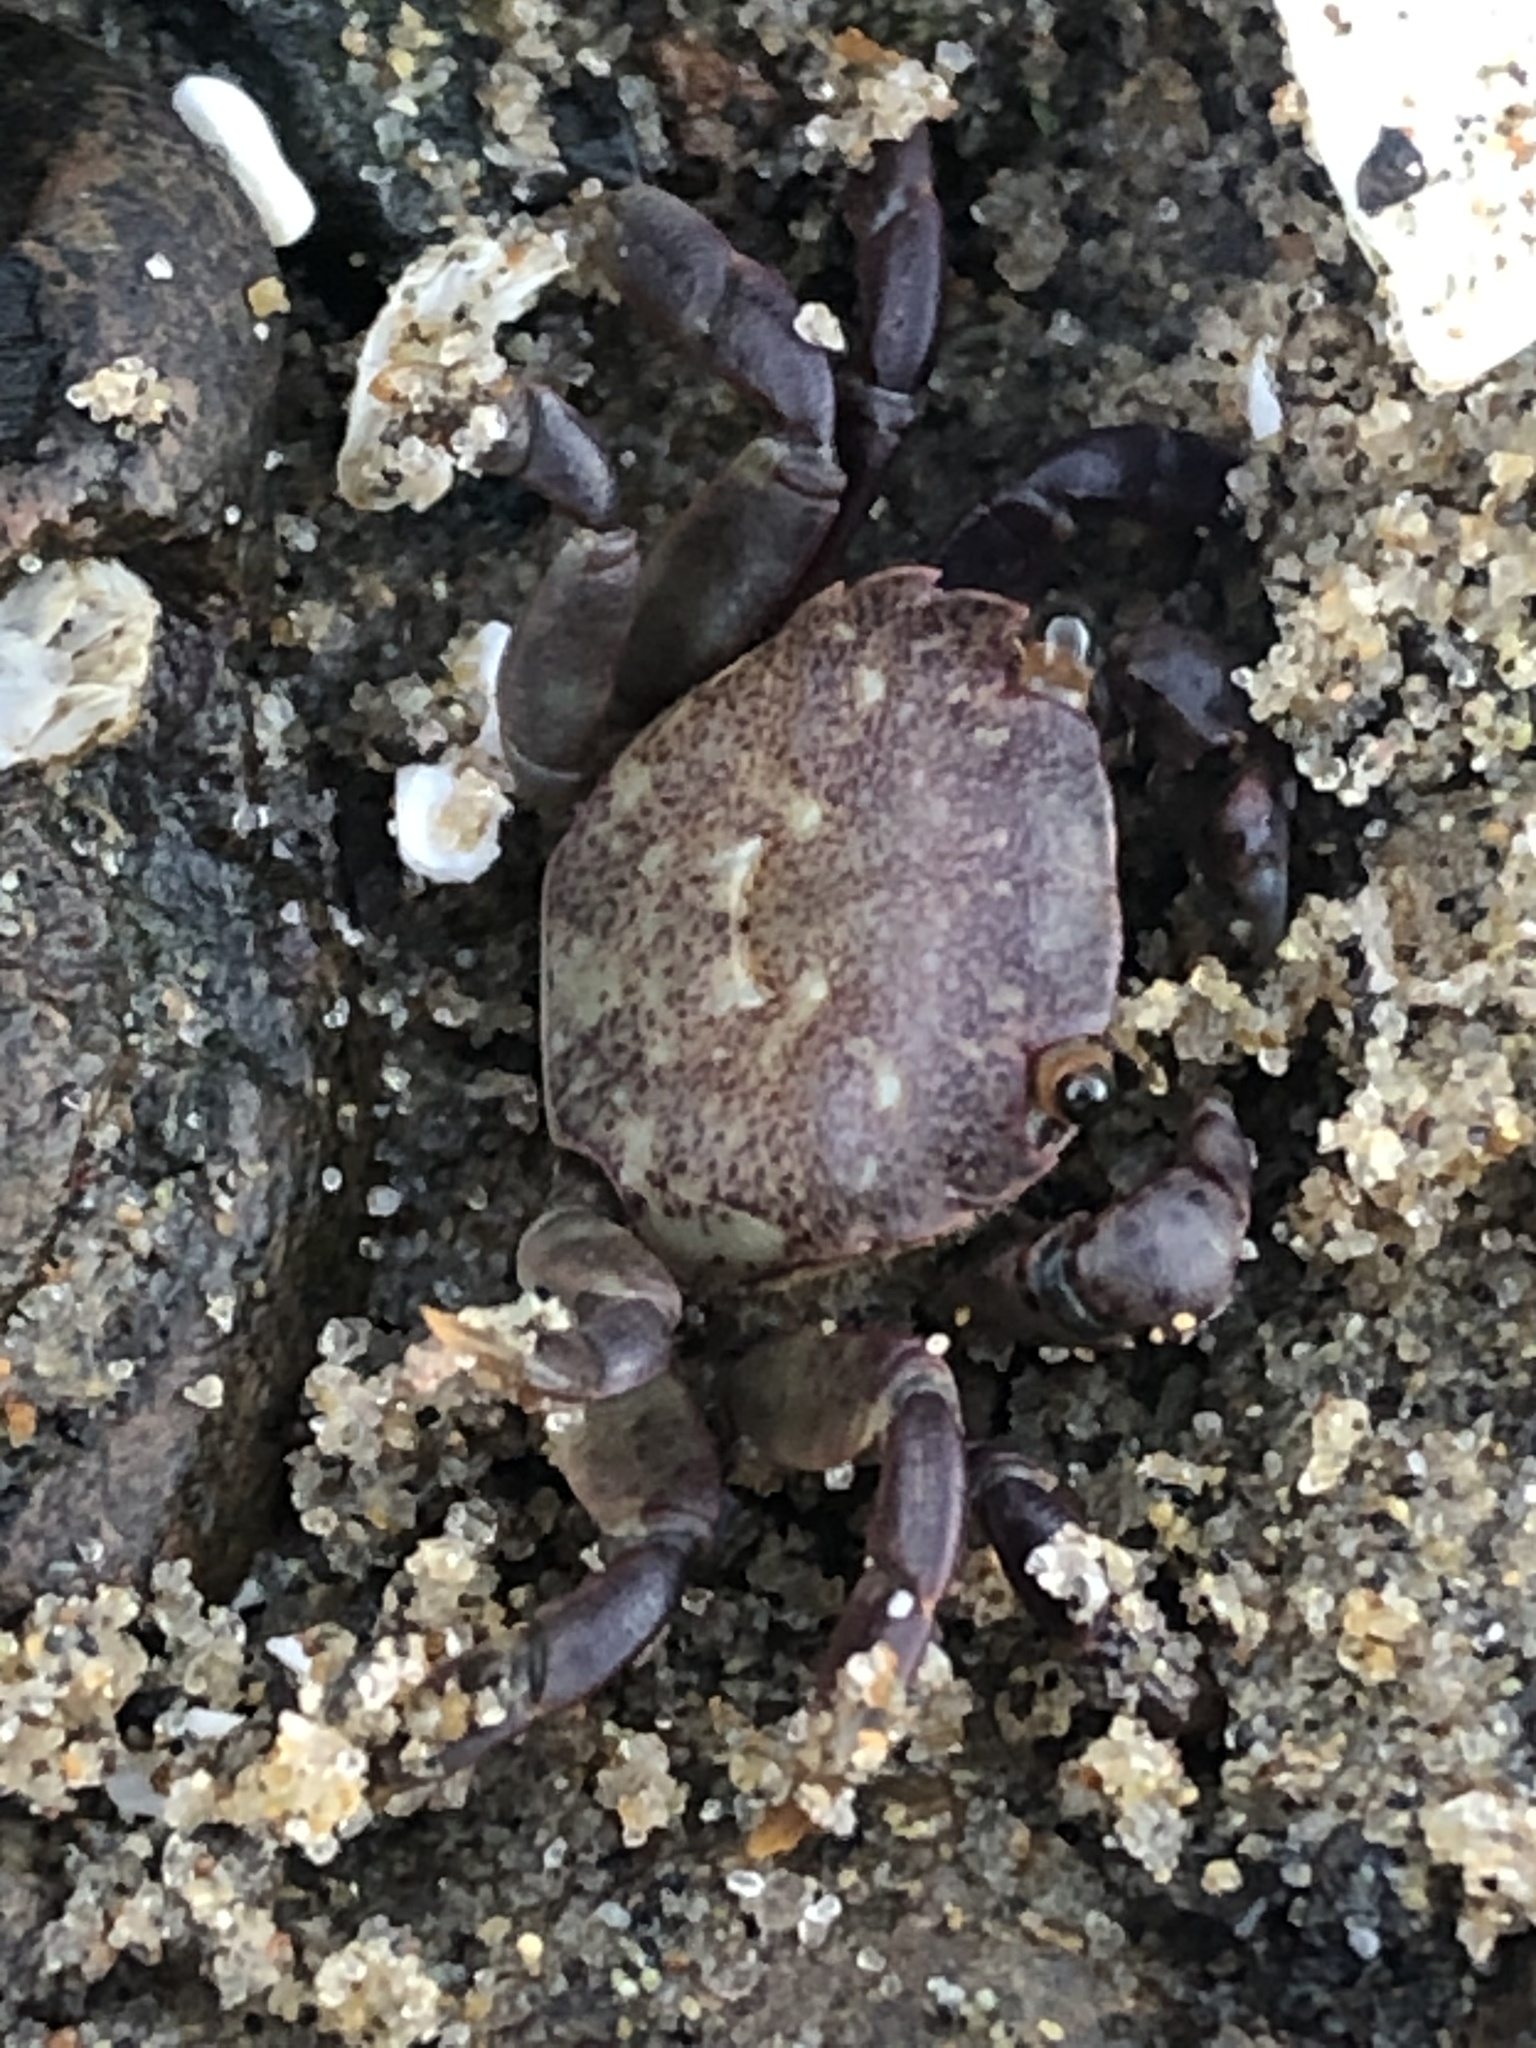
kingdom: Animalia
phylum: Arthropoda
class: Malacostraca
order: Decapoda
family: Varunidae
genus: Hemigrapsus
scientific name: Hemigrapsus nudus
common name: Purple shore crab
